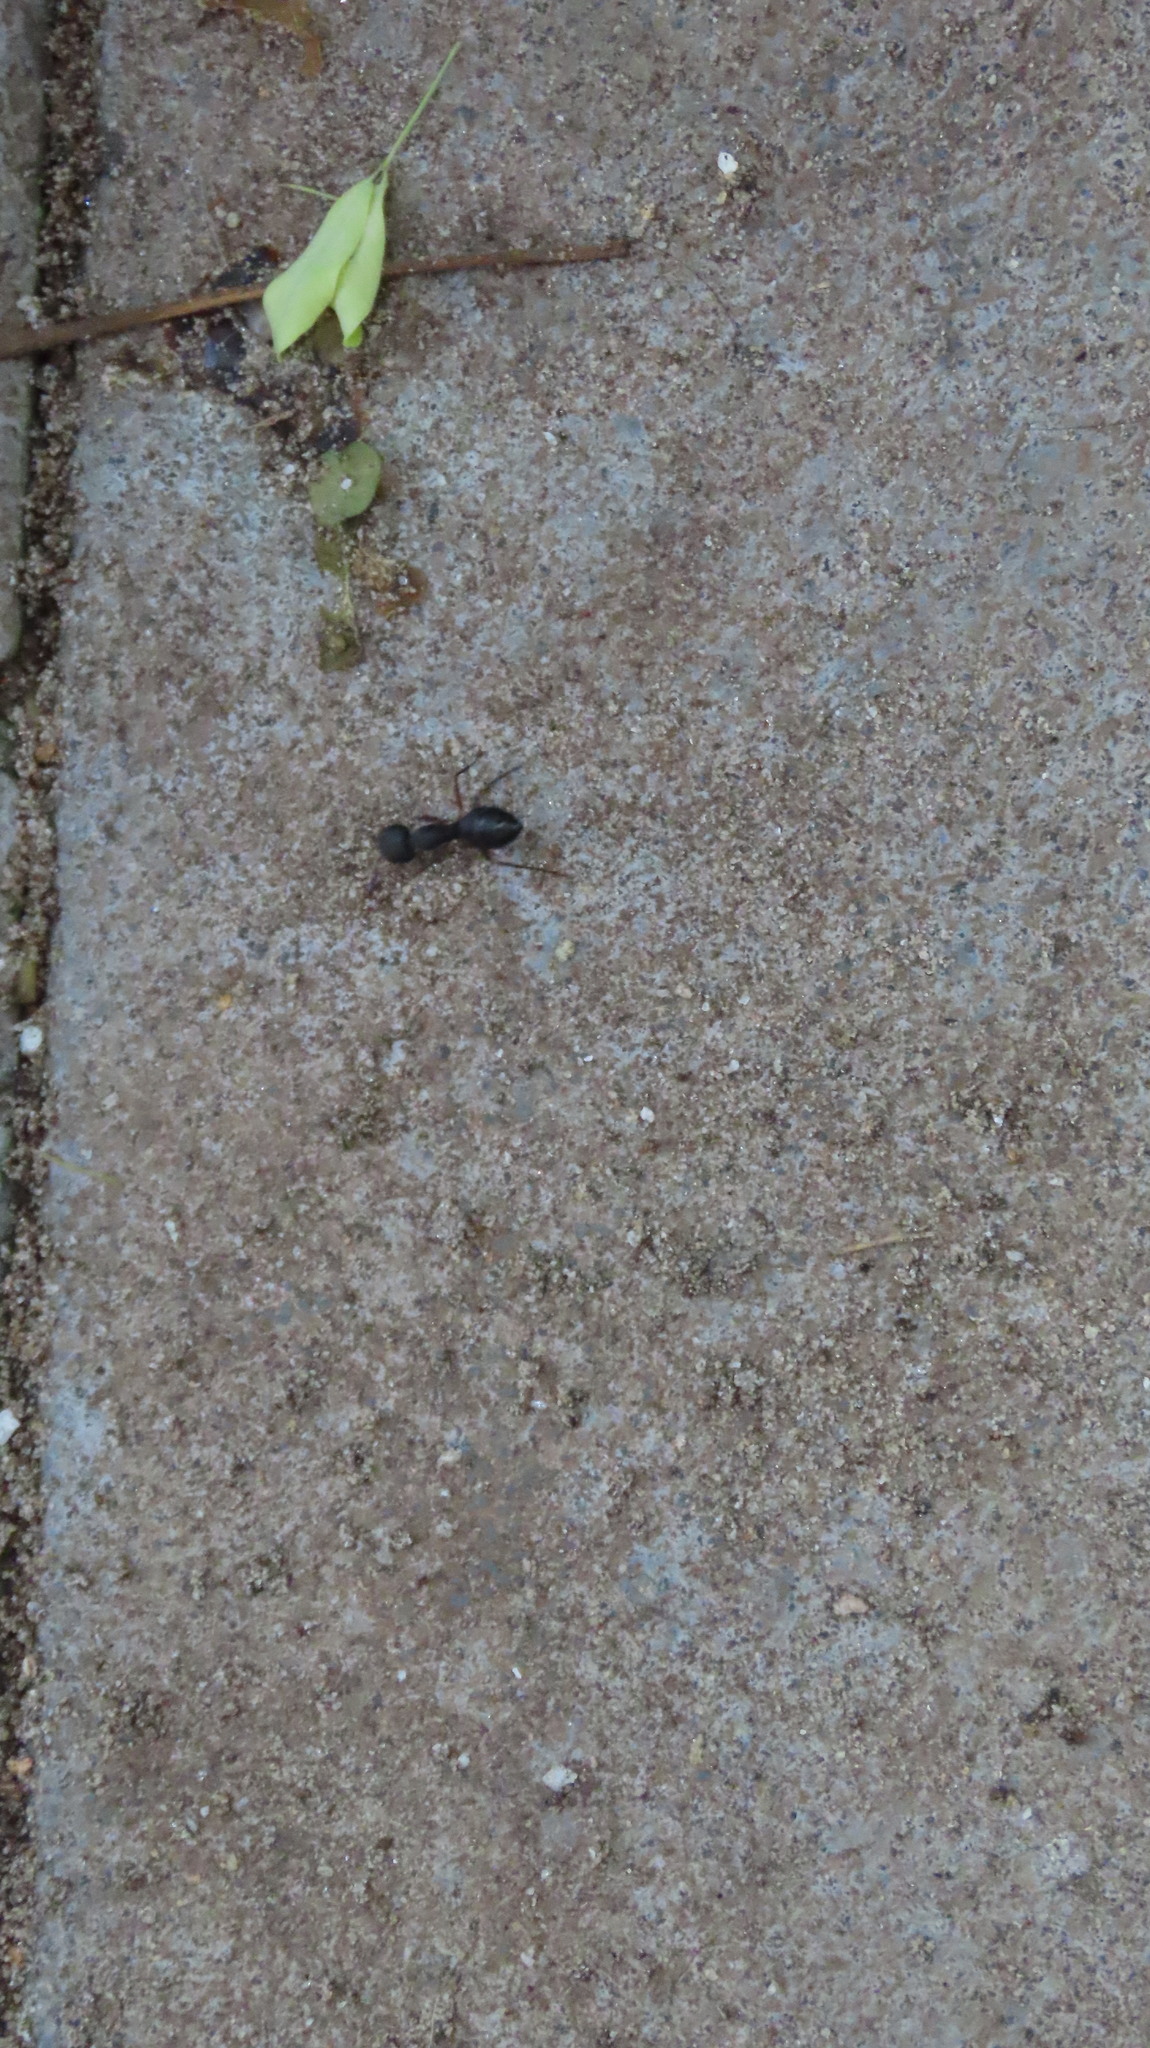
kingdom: Animalia
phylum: Arthropoda
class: Insecta
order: Hymenoptera
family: Formicidae
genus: Camponotus
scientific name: Camponotus compressus
